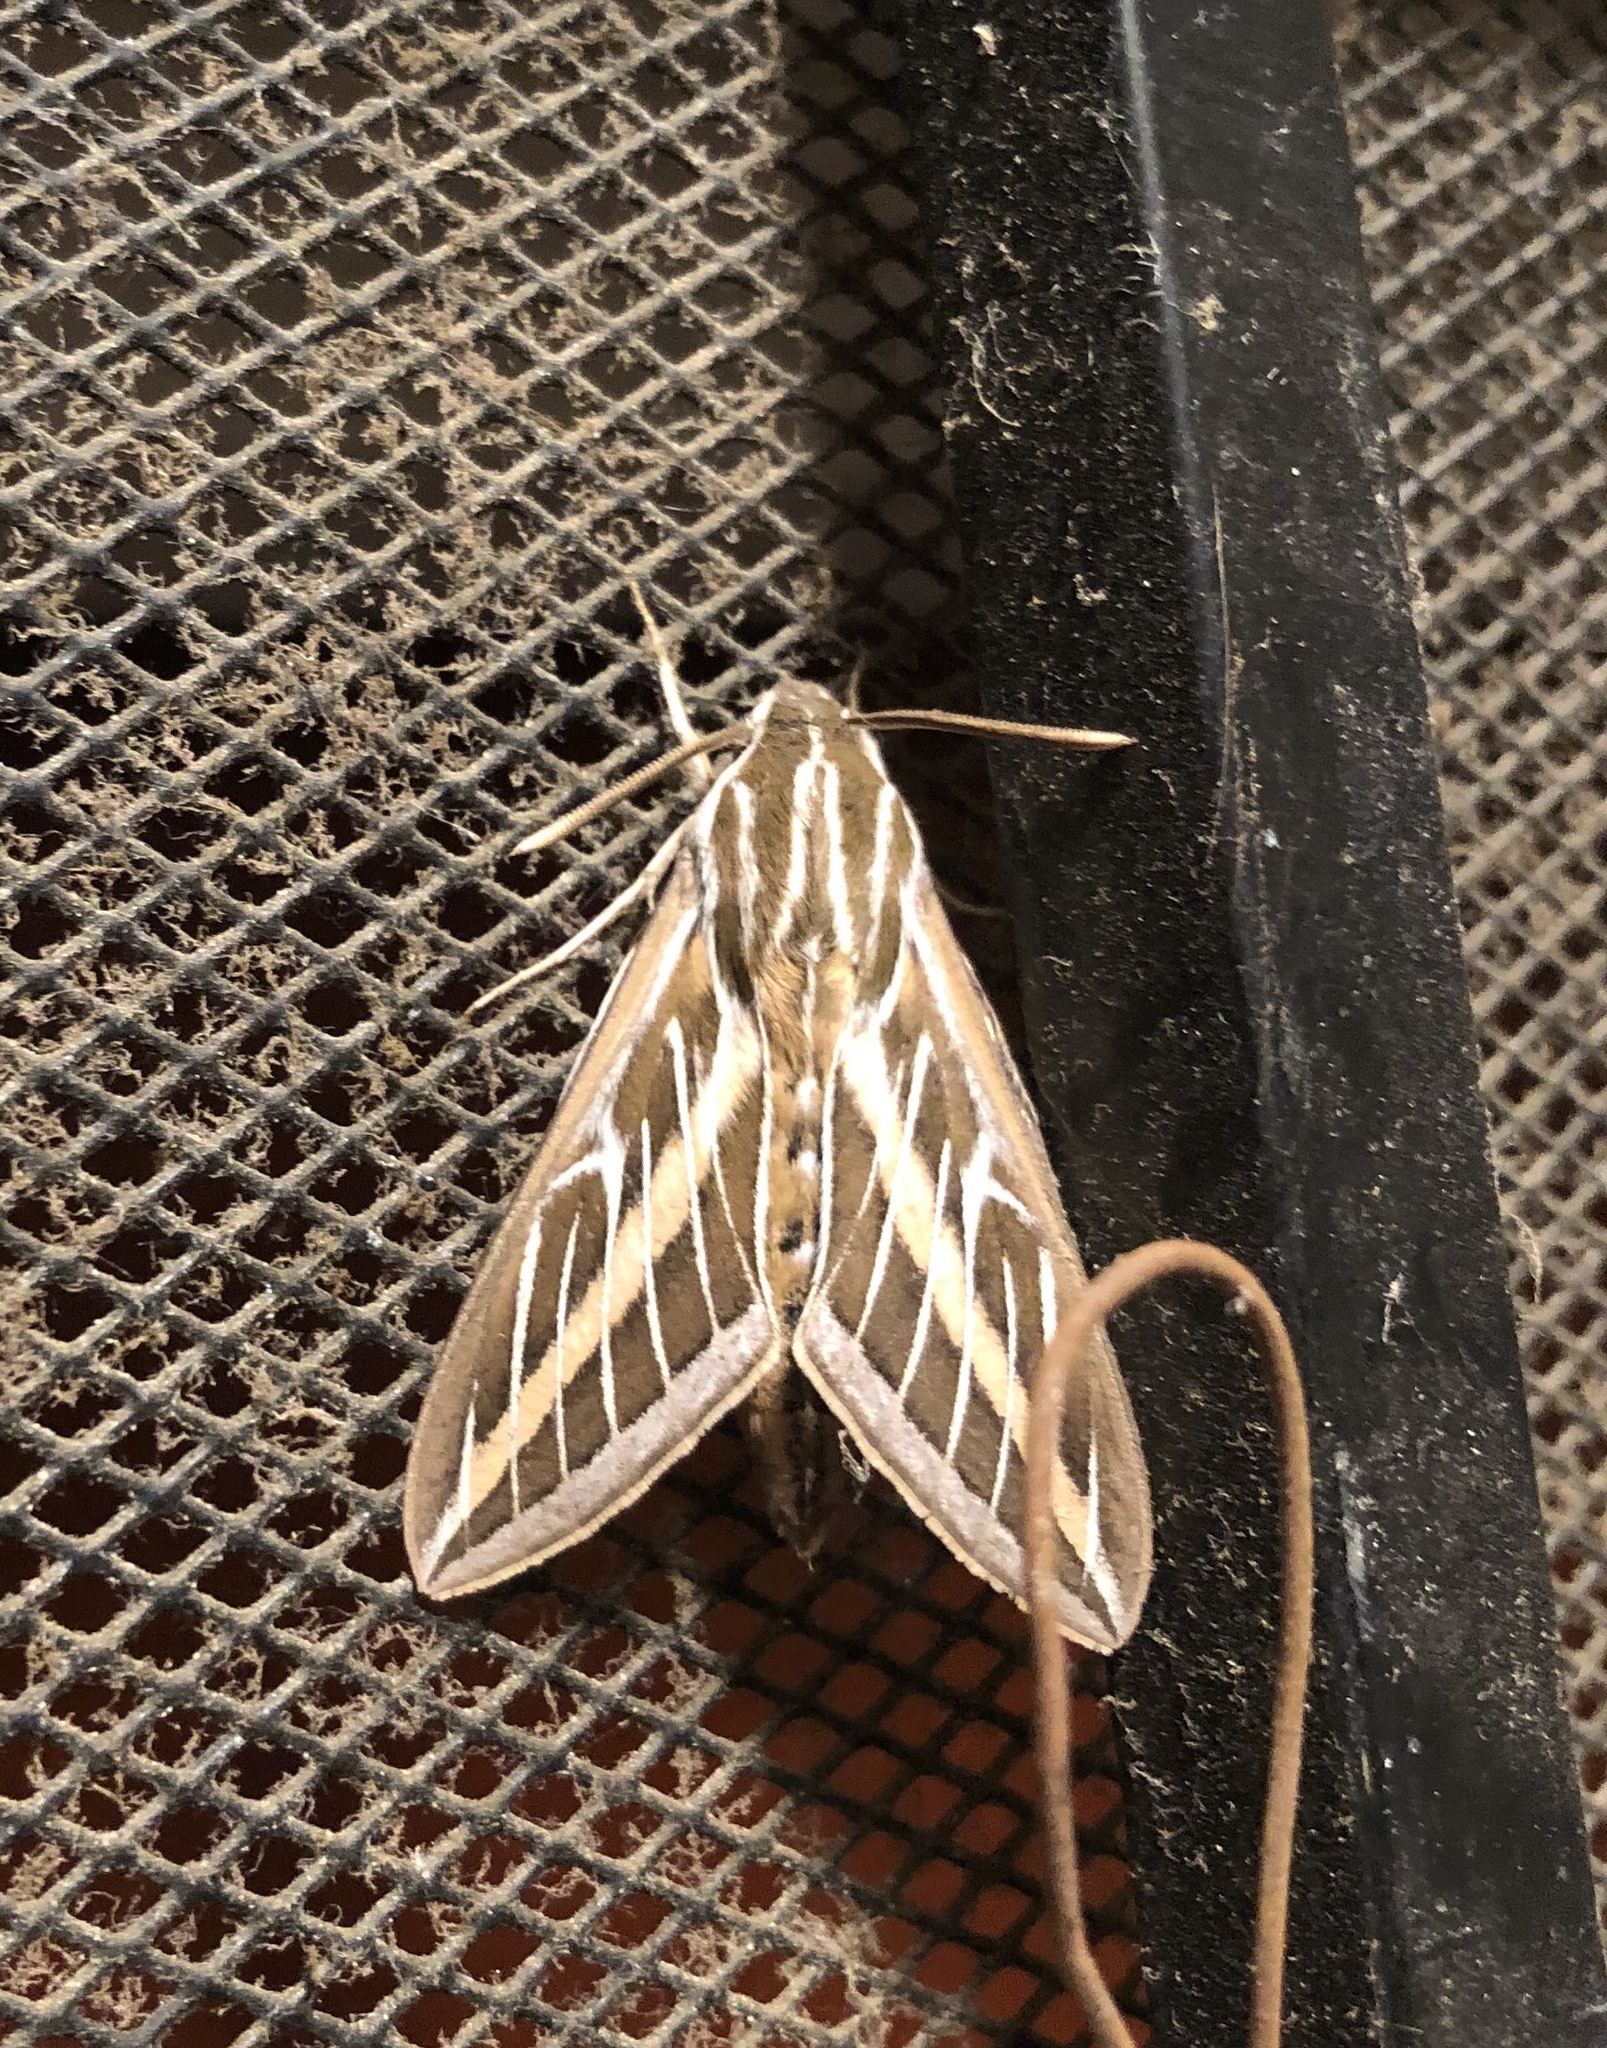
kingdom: Animalia
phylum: Arthropoda
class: Insecta
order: Lepidoptera
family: Sphingidae
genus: Hyles
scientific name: Hyles lineata
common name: White-lined sphinx
